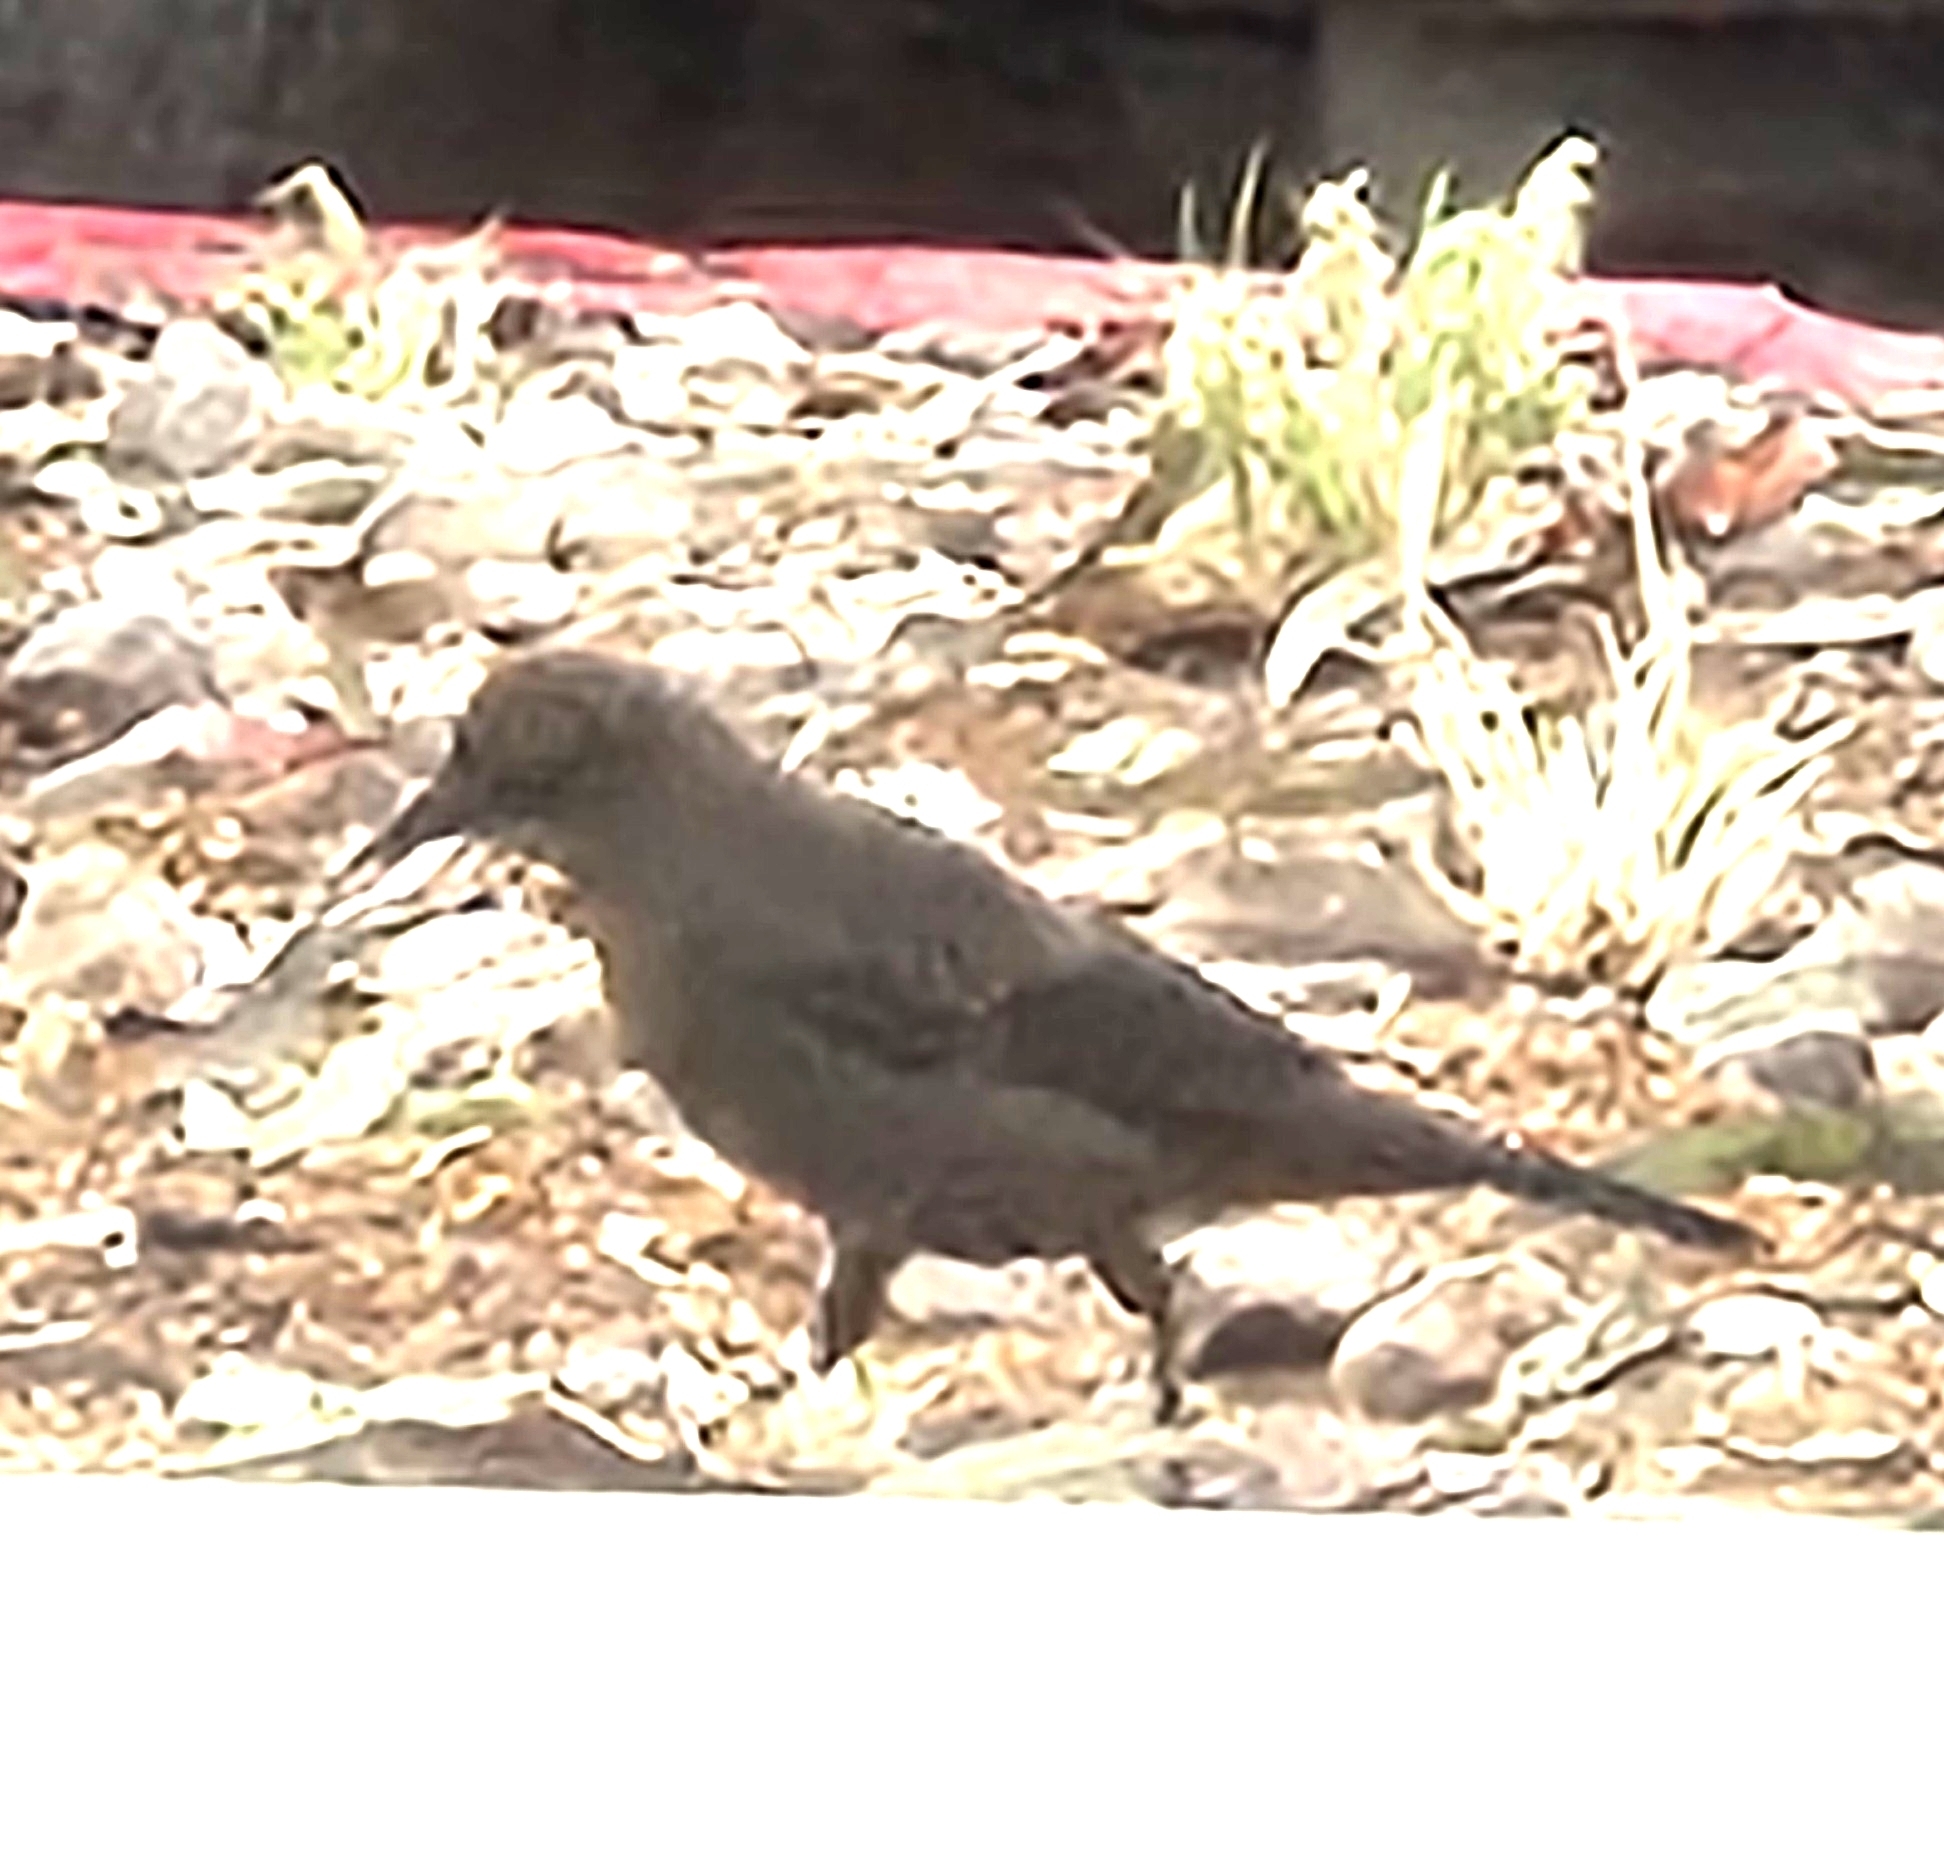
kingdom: Animalia
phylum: Chordata
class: Aves
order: Passeriformes
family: Icteridae
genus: Euphagus
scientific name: Euphagus cyanocephalus
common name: Brewer's blackbird
